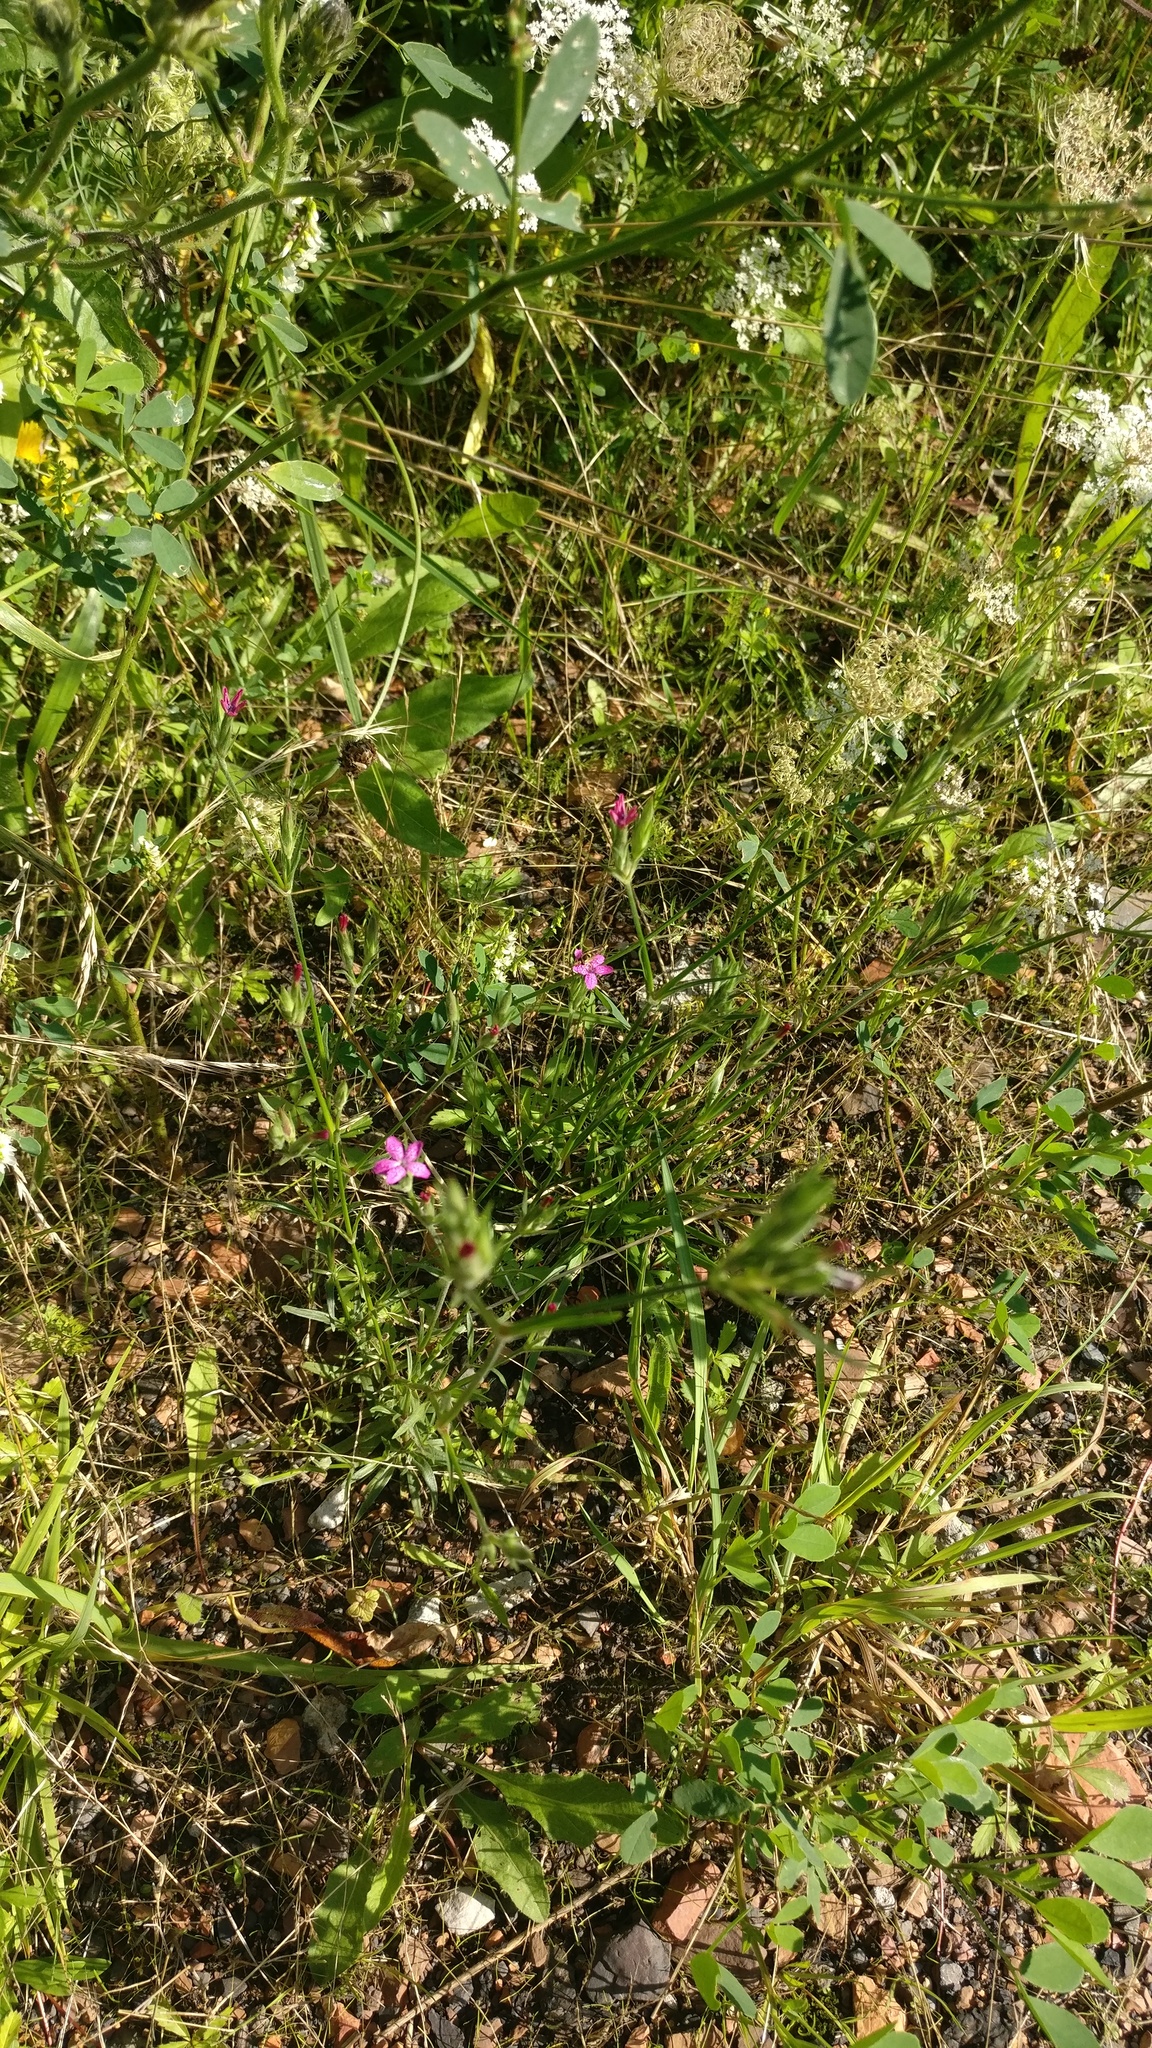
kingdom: Plantae
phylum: Tracheophyta
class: Magnoliopsida
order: Caryophyllales
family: Caryophyllaceae
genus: Dianthus
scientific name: Dianthus armeria
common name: Deptford pink
